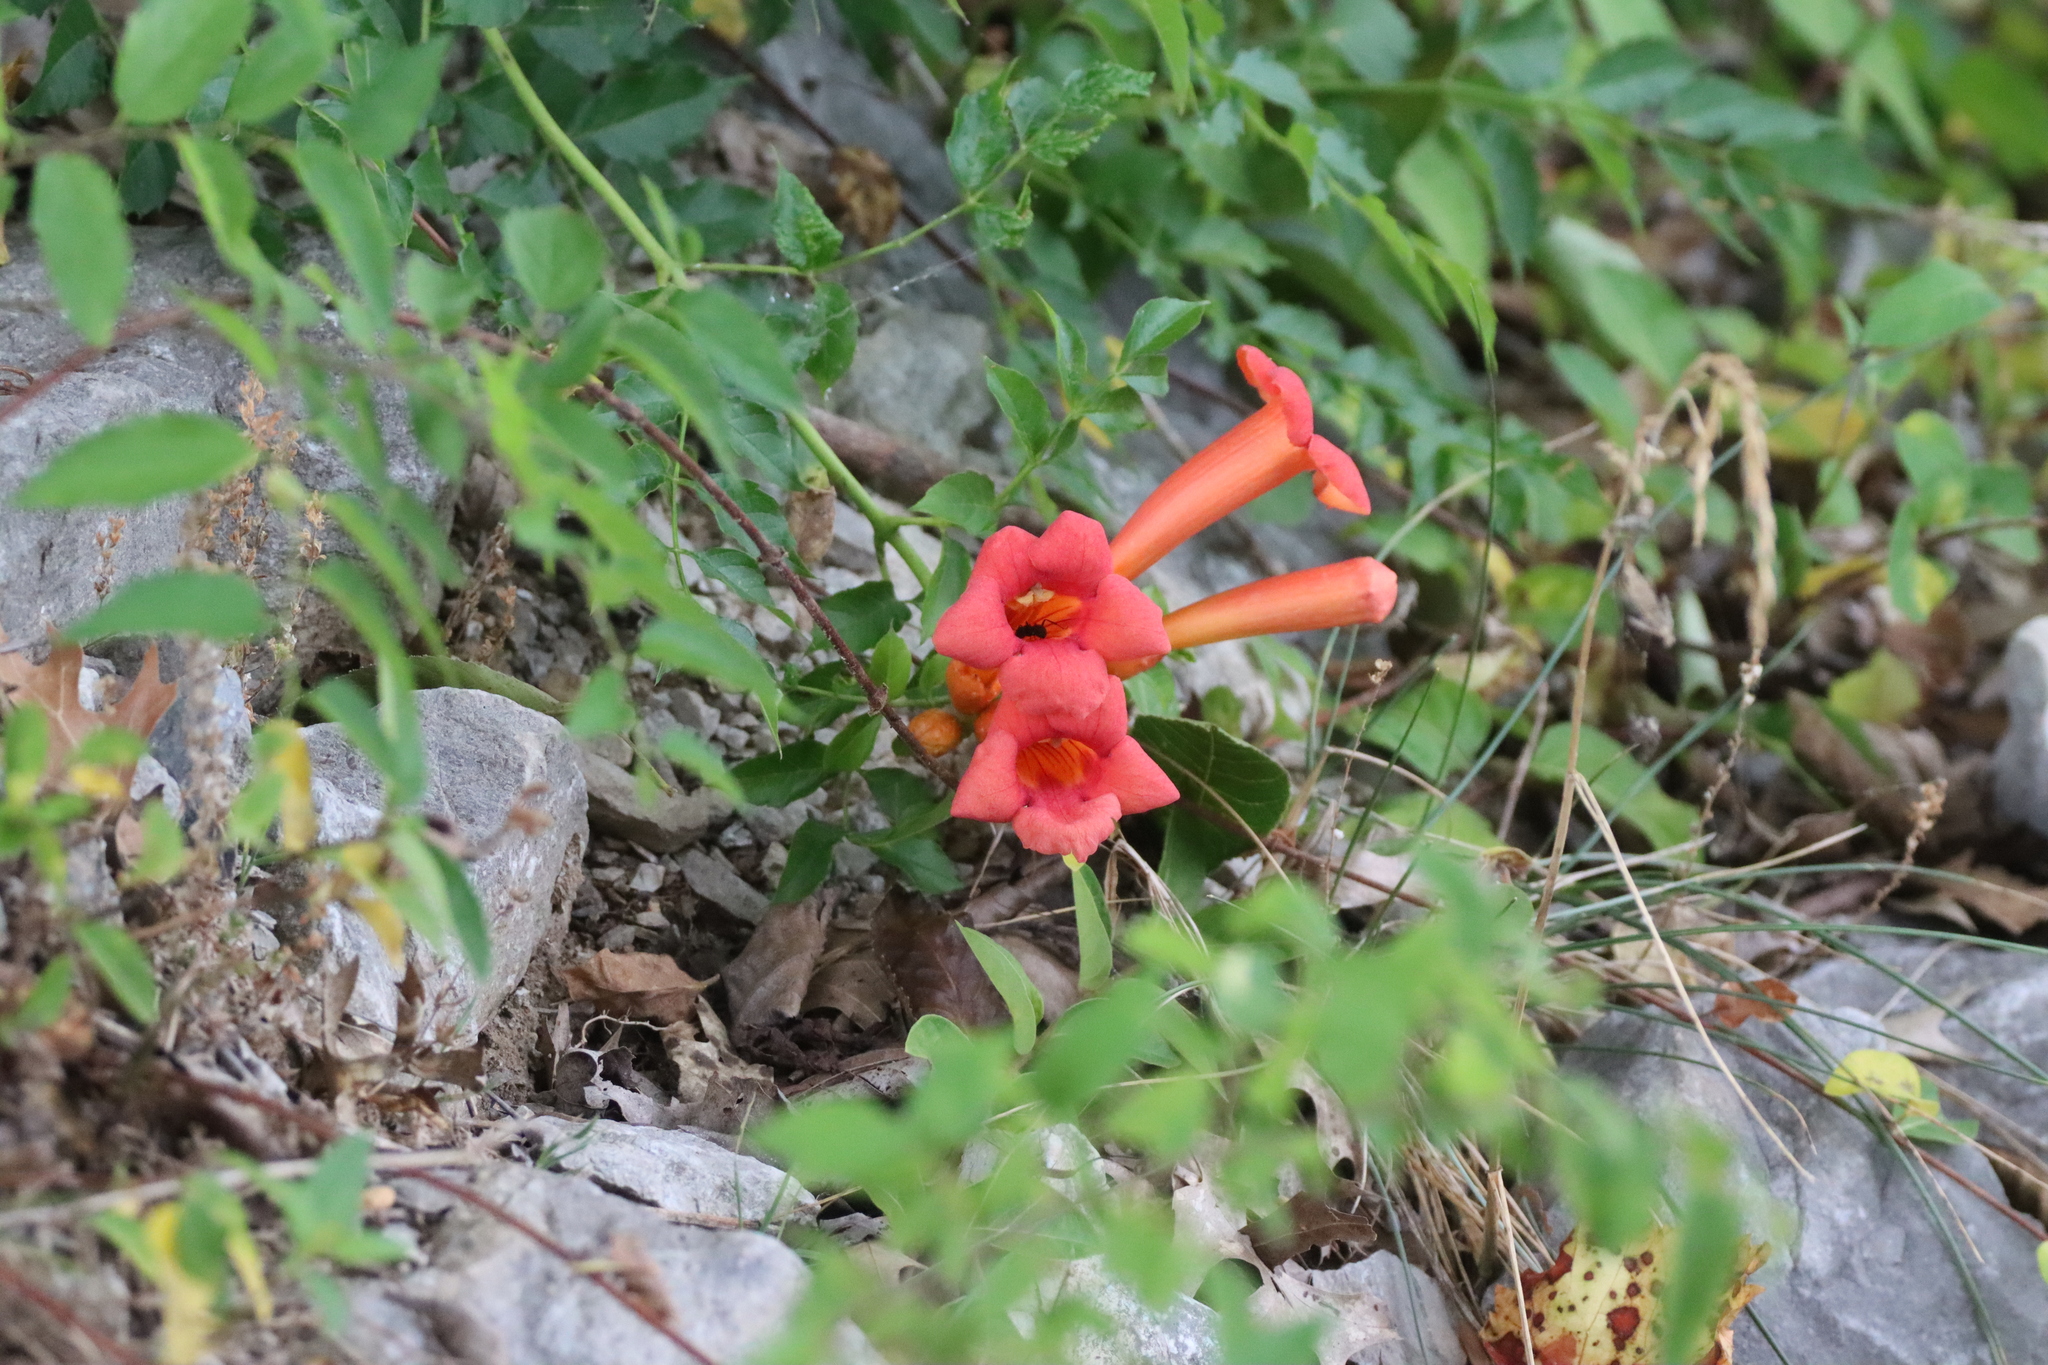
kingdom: Plantae
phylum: Tracheophyta
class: Magnoliopsida
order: Lamiales
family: Bignoniaceae
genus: Campsis
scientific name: Campsis radicans
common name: Trumpet-creeper
